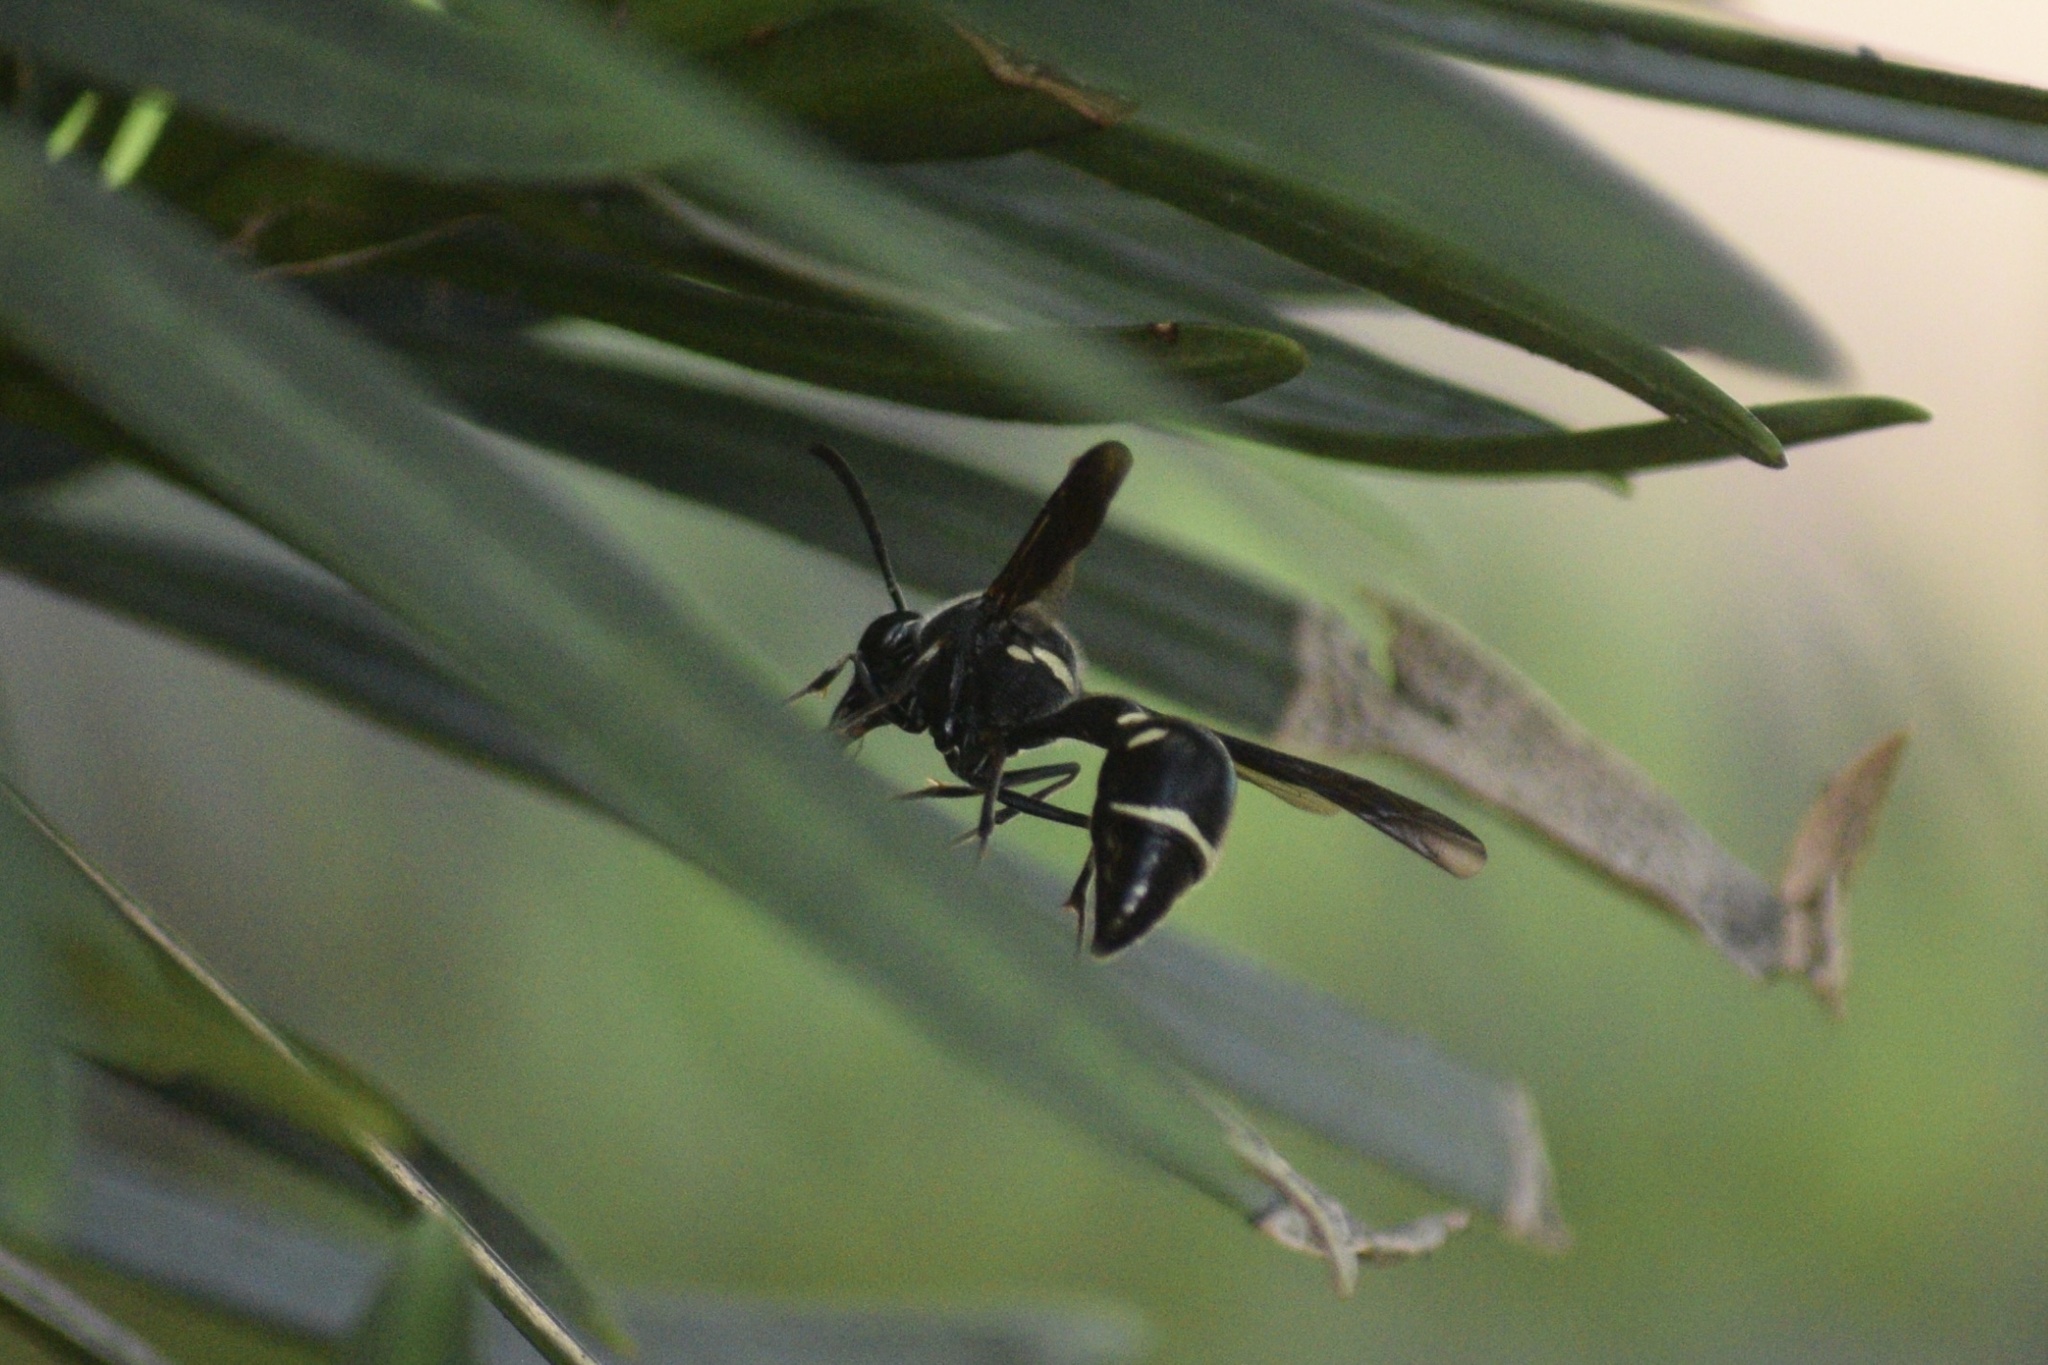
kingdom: Animalia
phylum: Arthropoda
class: Insecta
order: Hymenoptera
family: Vespidae
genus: Eumenes
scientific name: Eumenes fraternus
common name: Fraternal potter wasp
